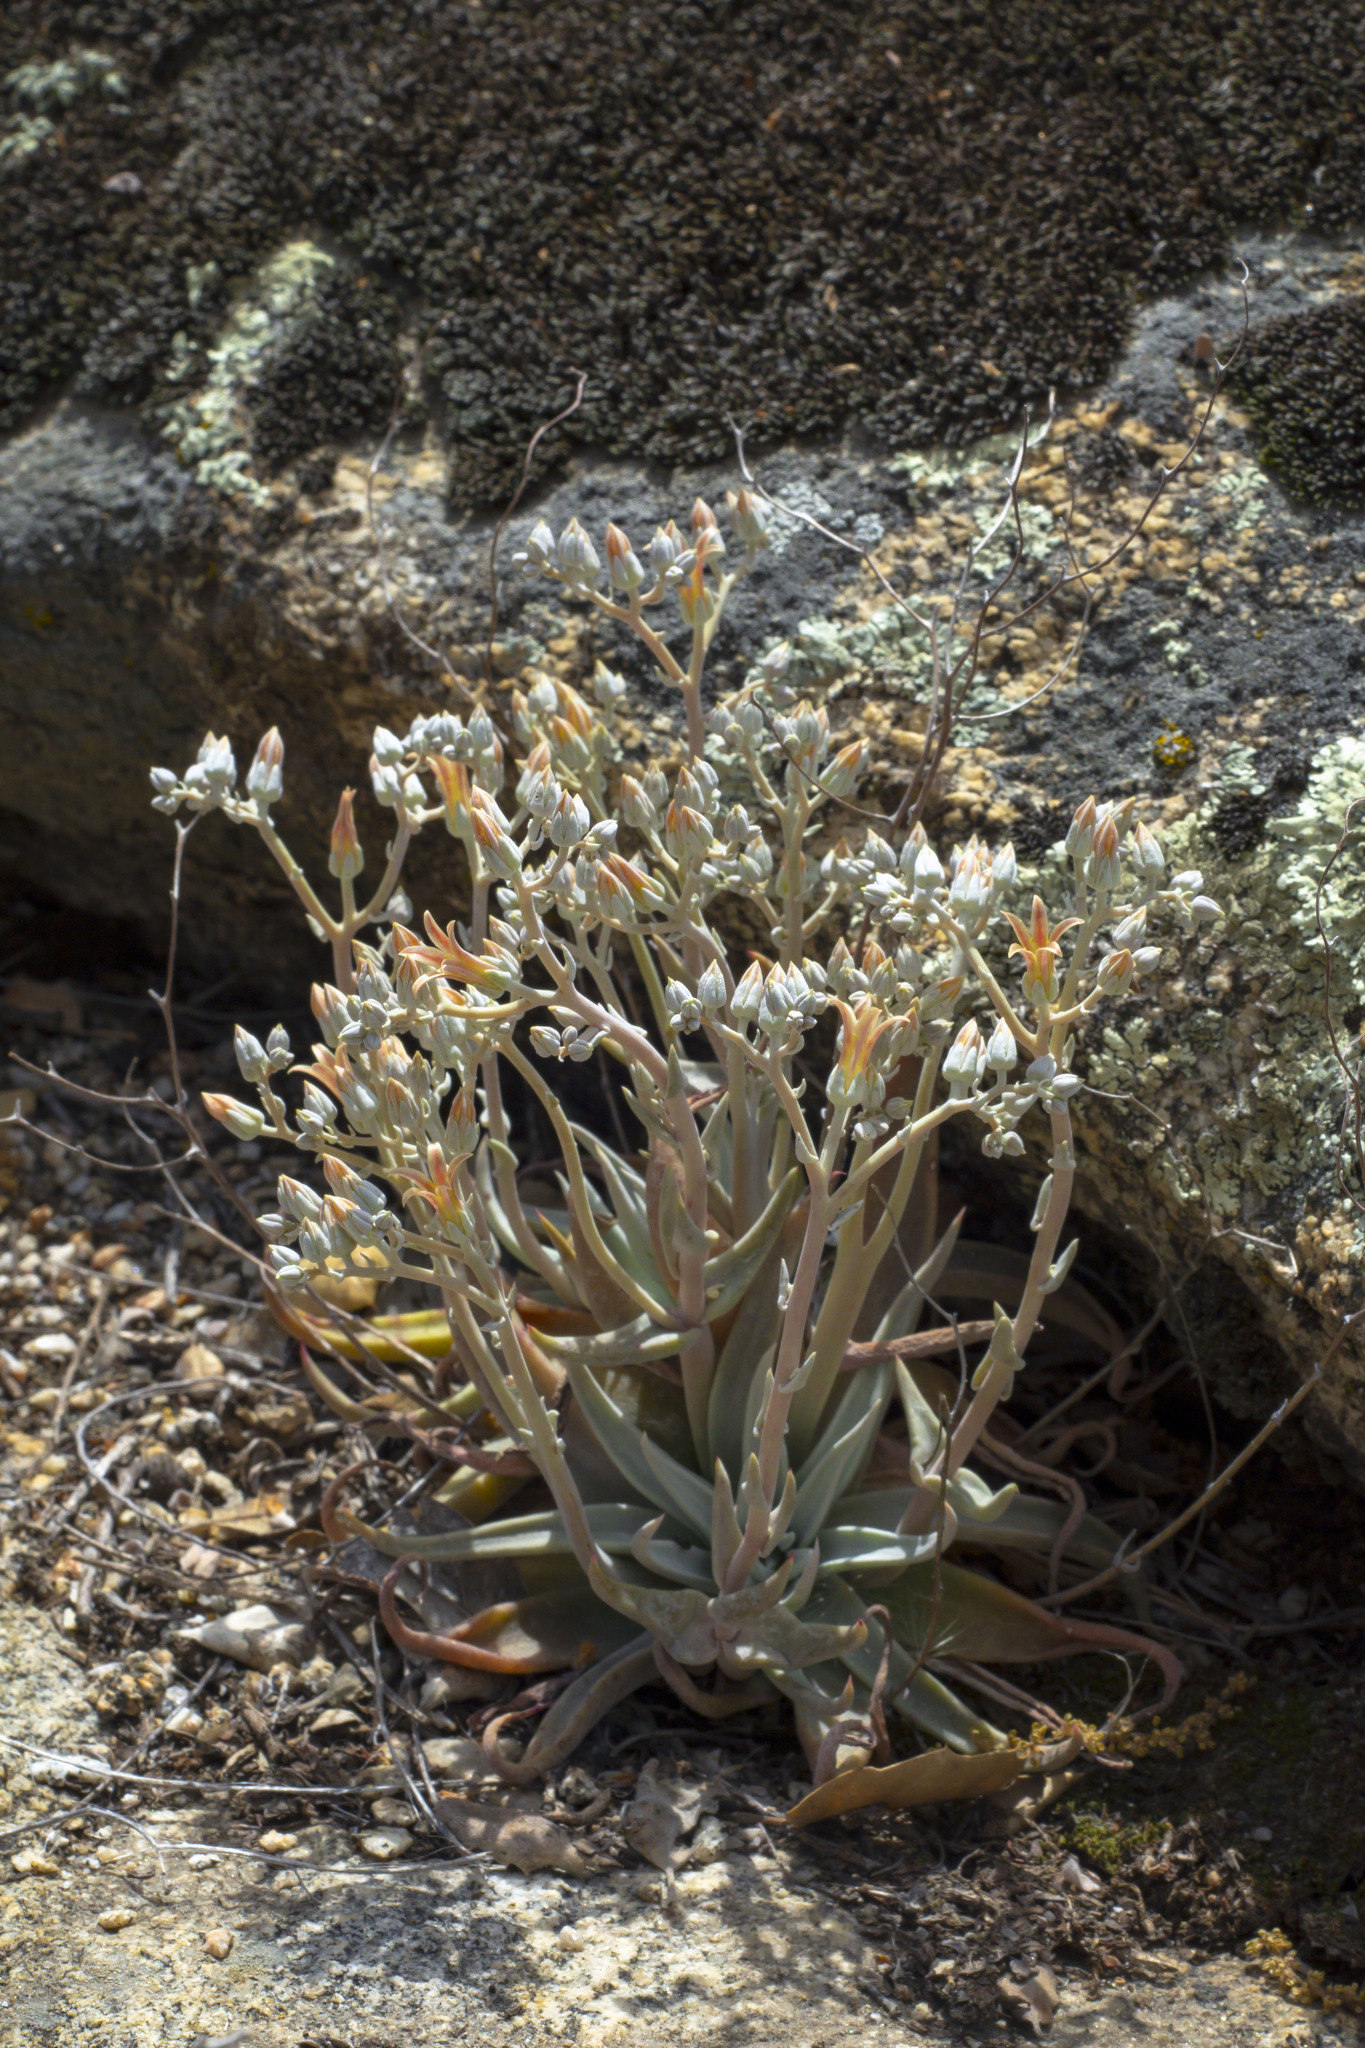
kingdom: Plantae
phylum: Tracheophyta
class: Magnoliopsida
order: Saxifragales
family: Crassulaceae
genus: Dudleya
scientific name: Dudleya abramsii
